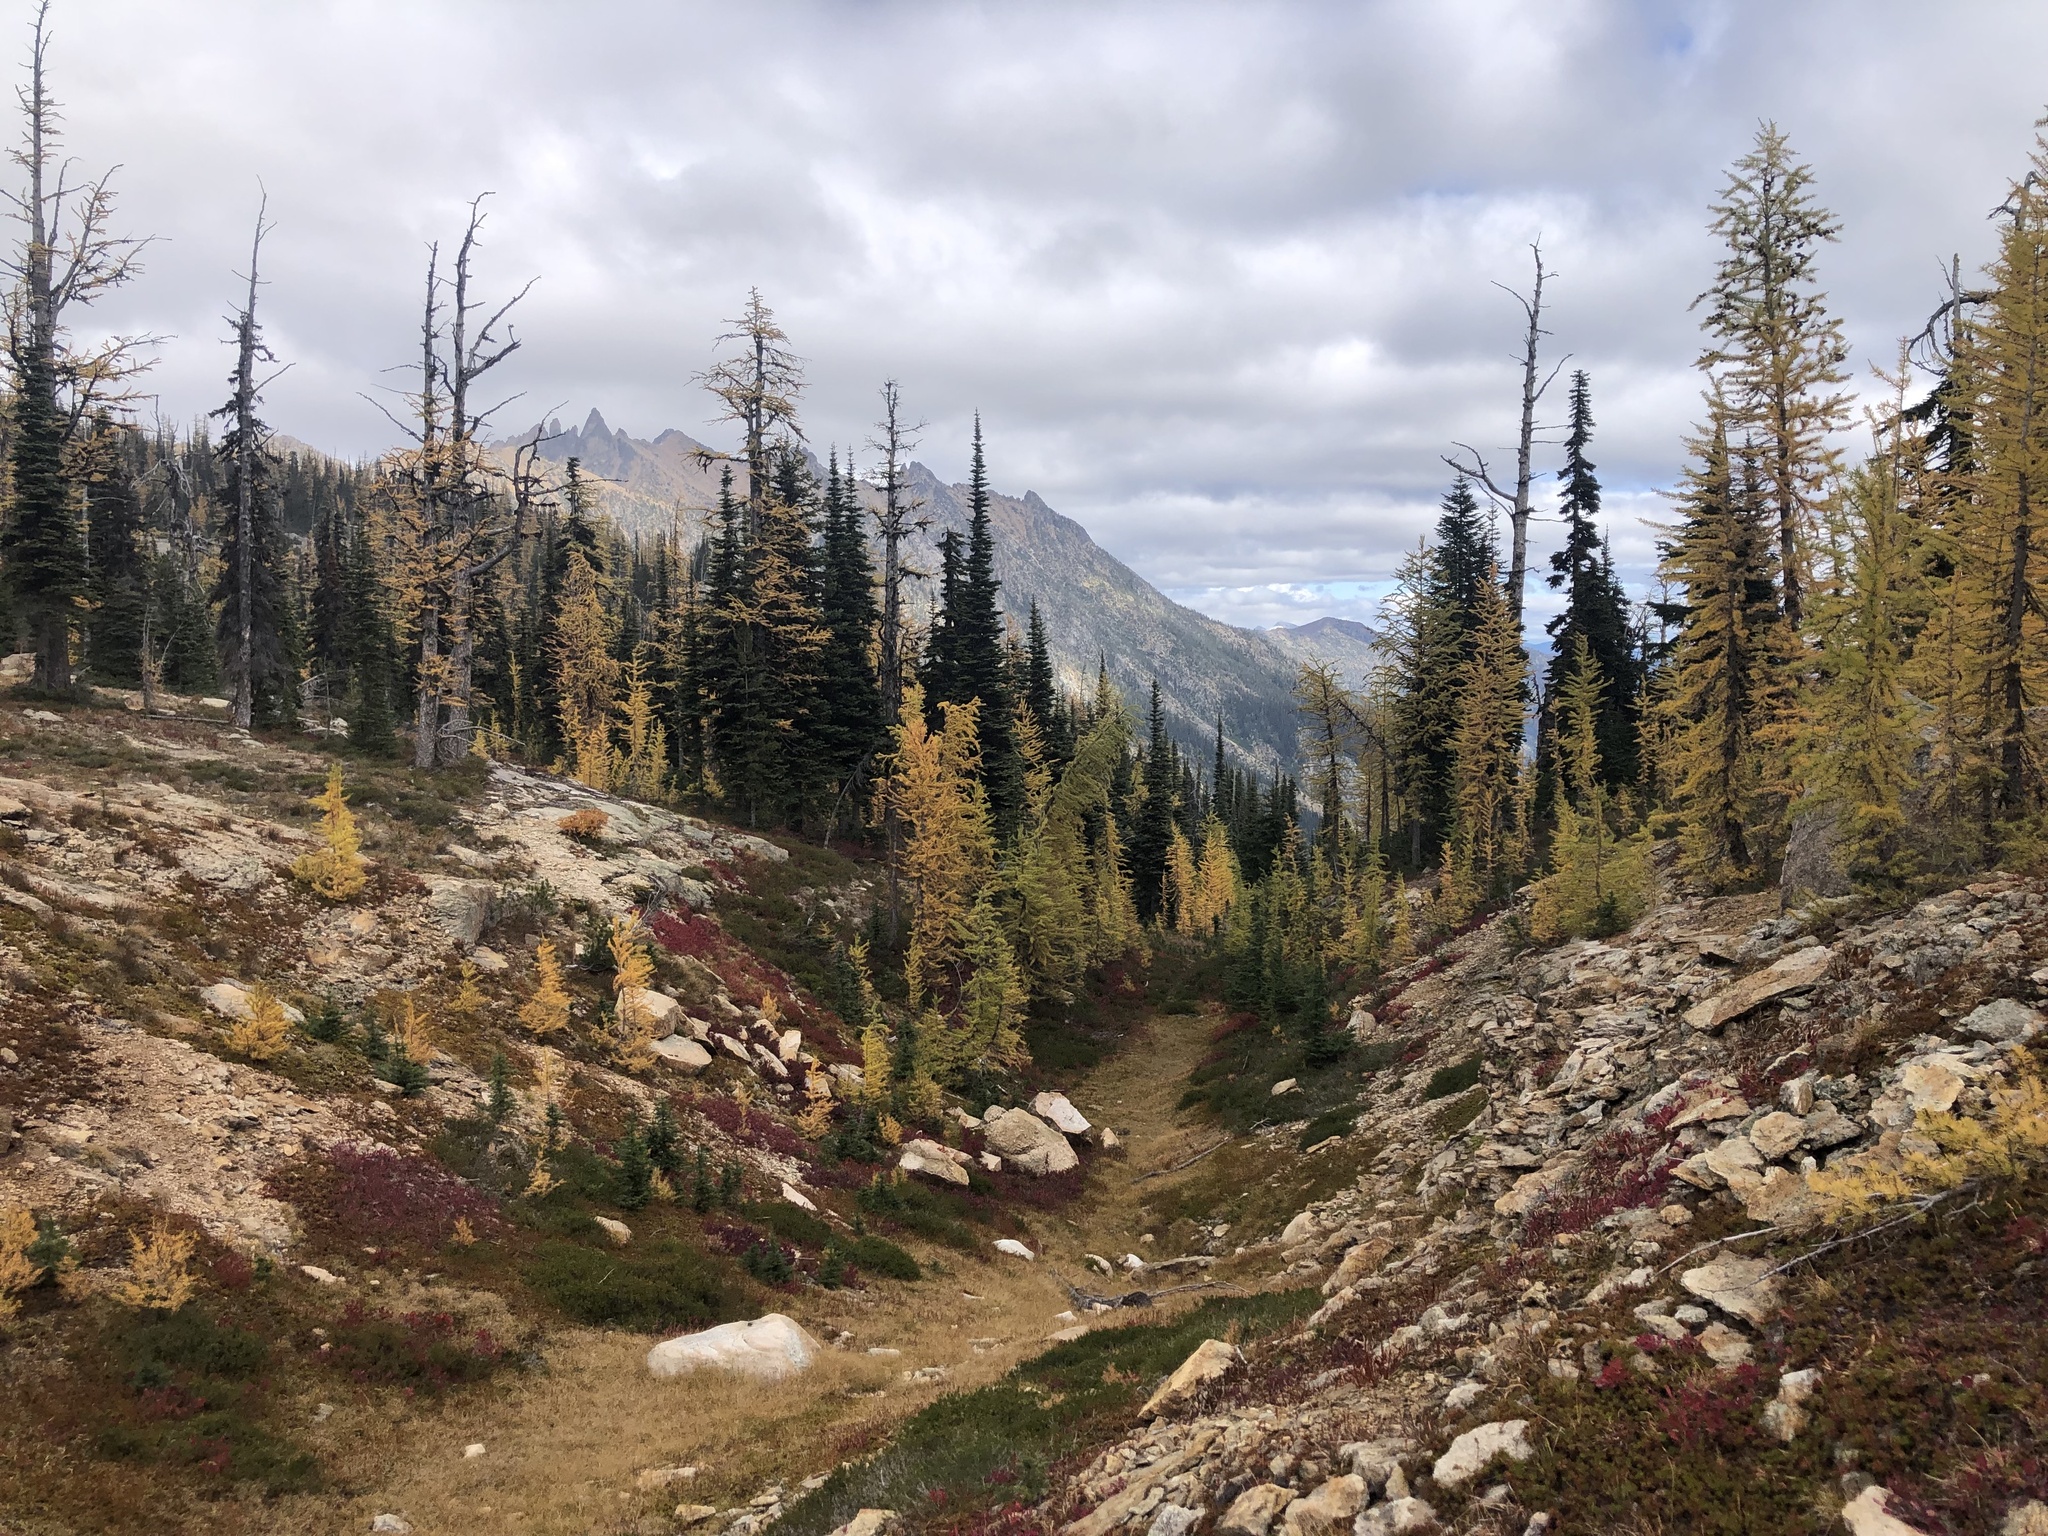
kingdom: Plantae
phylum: Tracheophyta
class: Pinopsida
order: Pinales
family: Pinaceae
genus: Abies
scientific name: Abies lasiocarpa
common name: Subalpine fir
